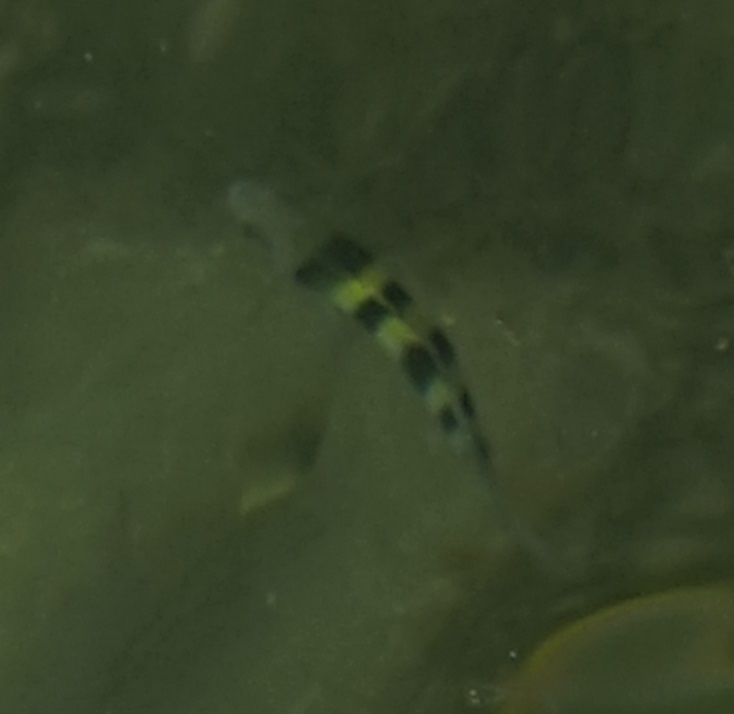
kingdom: Animalia
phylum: Chordata
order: Perciformes
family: Pomacentridae
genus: Abudefduf
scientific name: Abudefduf vaigiensis
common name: Indo-pacific sergeant
